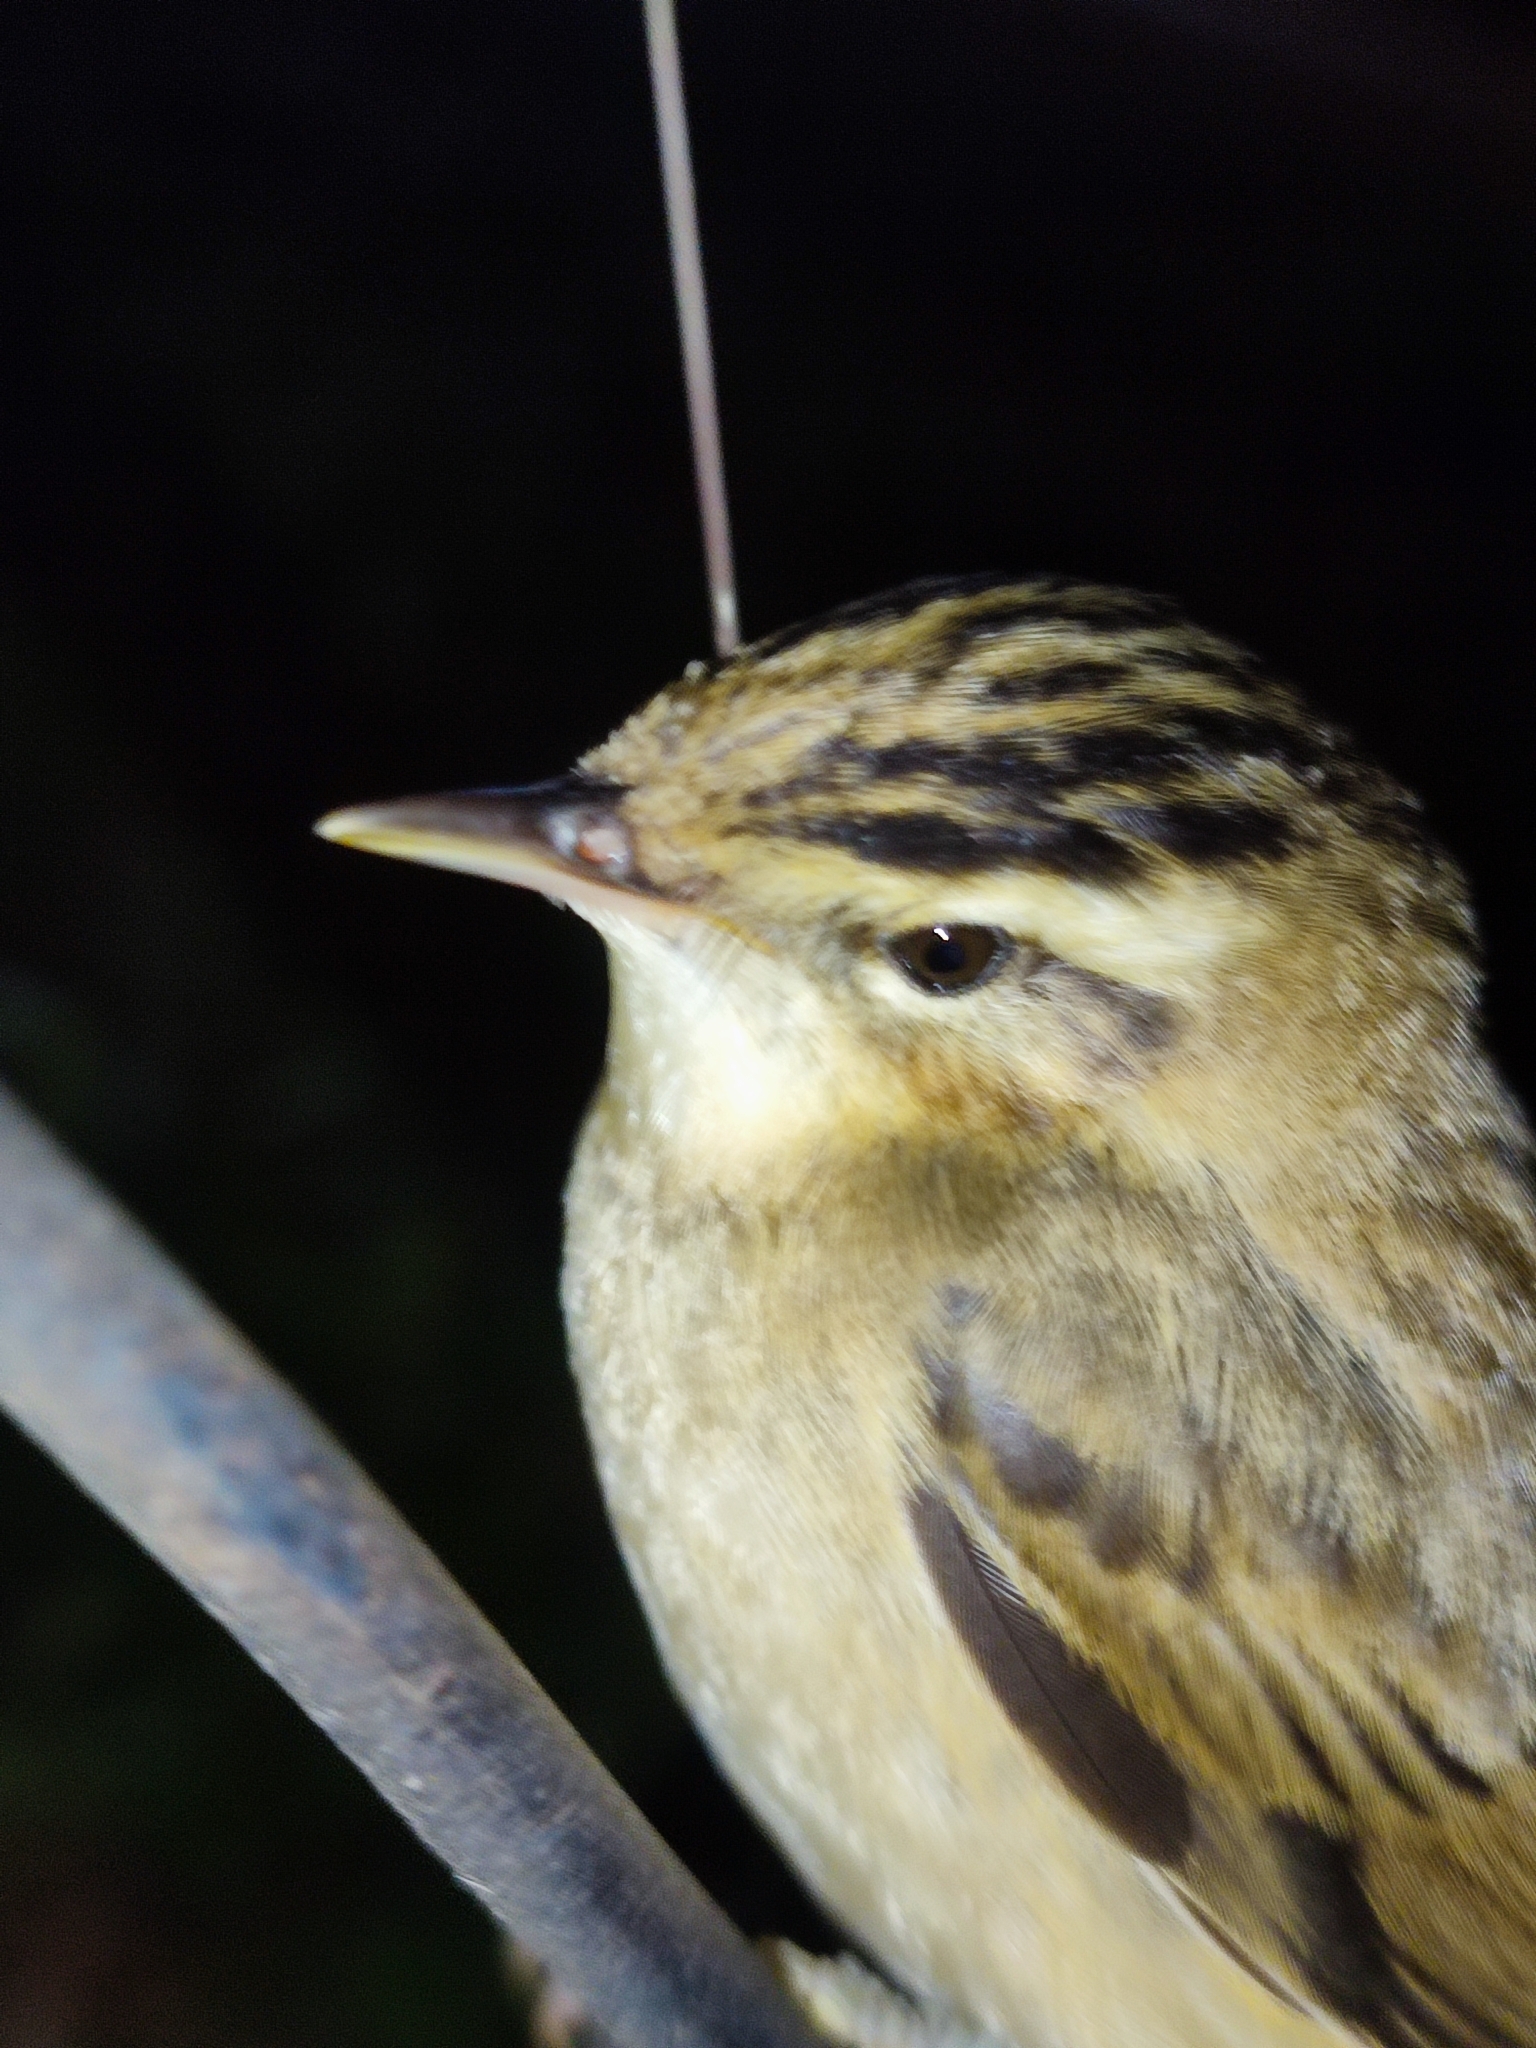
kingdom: Animalia
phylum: Chordata
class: Aves
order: Passeriformes
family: Acrocephalidae
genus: Acrocephalus
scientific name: Acrocephalus schoenobaenus
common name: Sedge warbler
